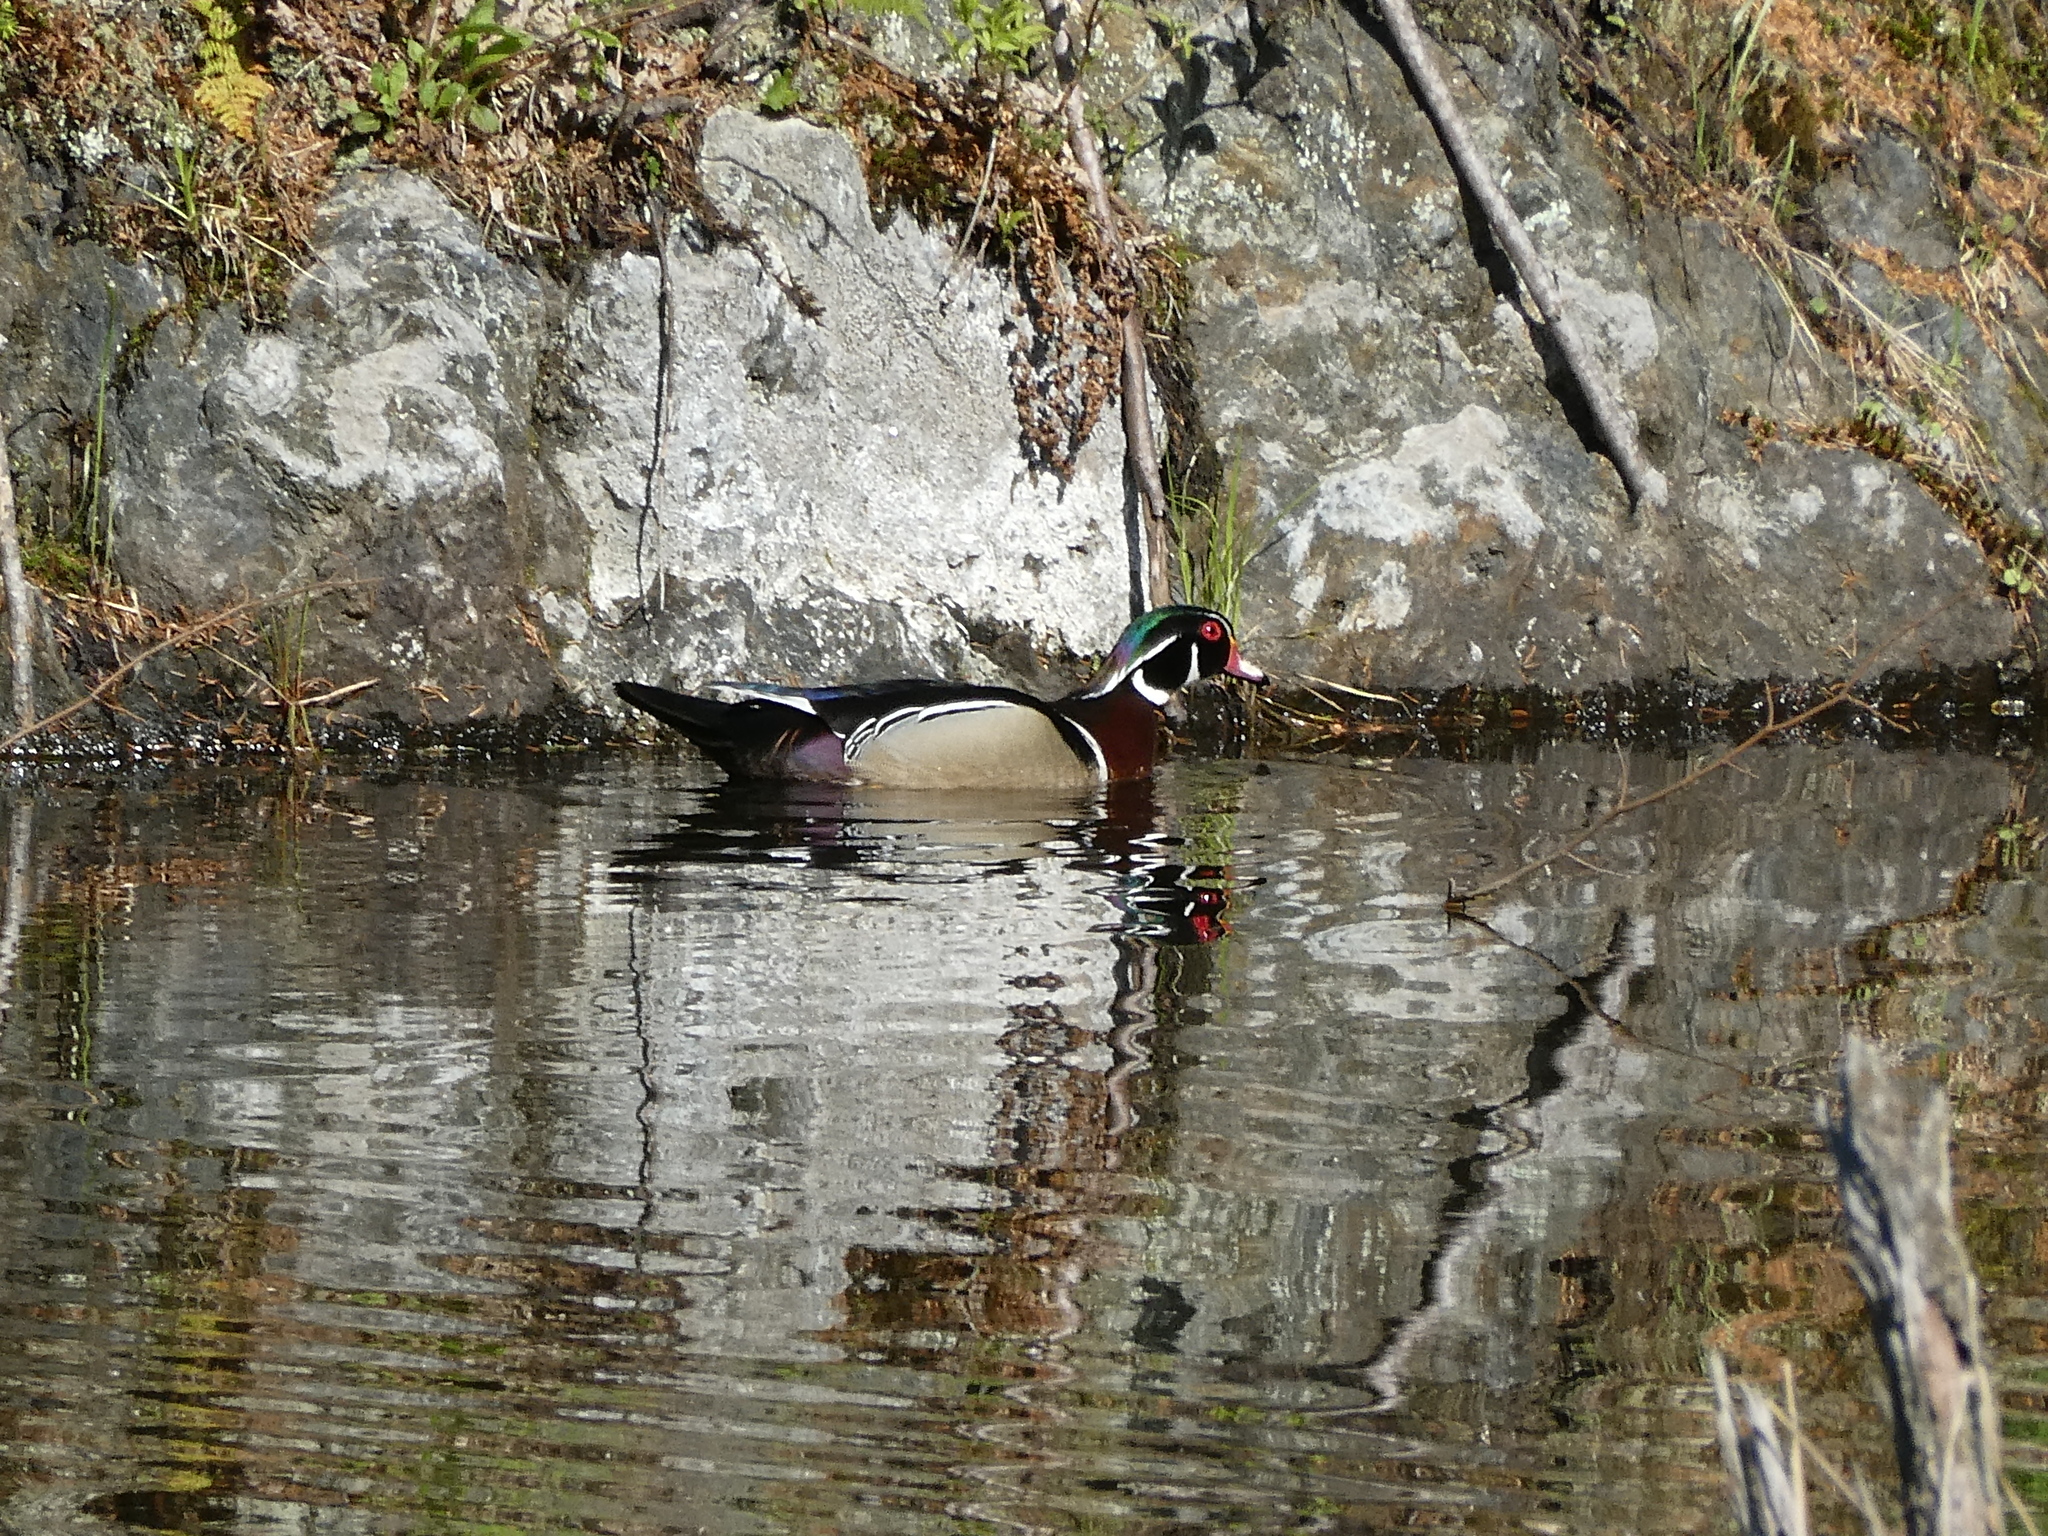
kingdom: Animalia
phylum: Chordata
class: Aves
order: Anseriformes
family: Anatidae
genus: Aix
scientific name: Aix sponsa
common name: Wood duck
